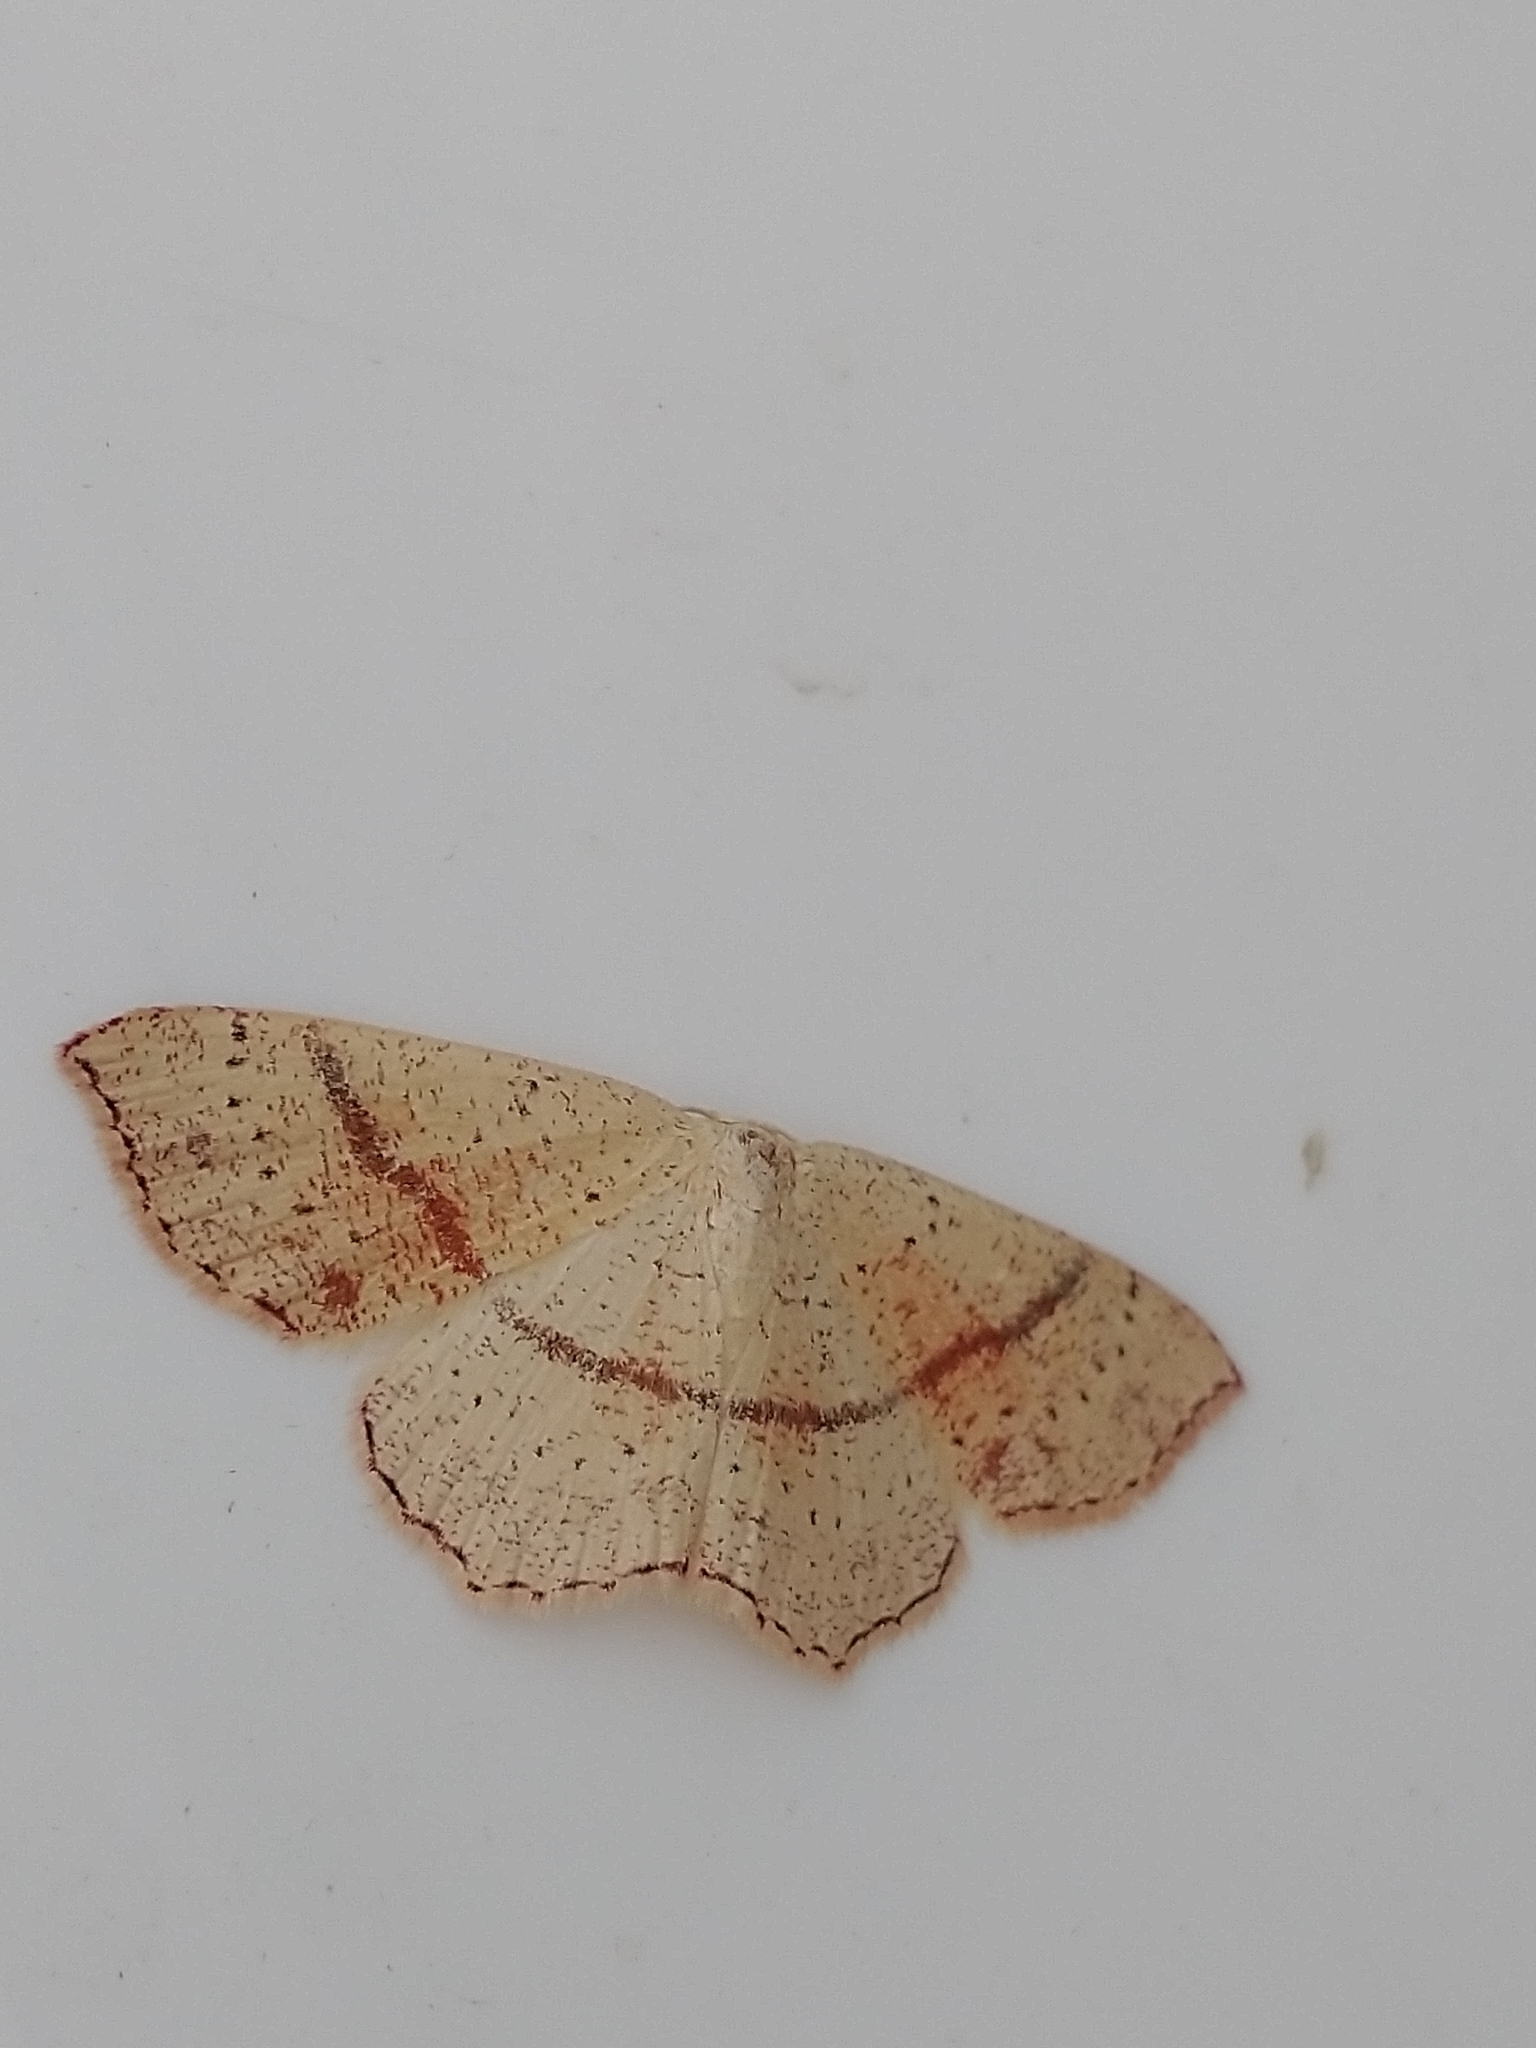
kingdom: Animalia
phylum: Arthropoda
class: Insecta
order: Lepidoptera
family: Geometridae
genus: Cyclophora
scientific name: Cyclophora punctaria
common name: Maiden's blush
